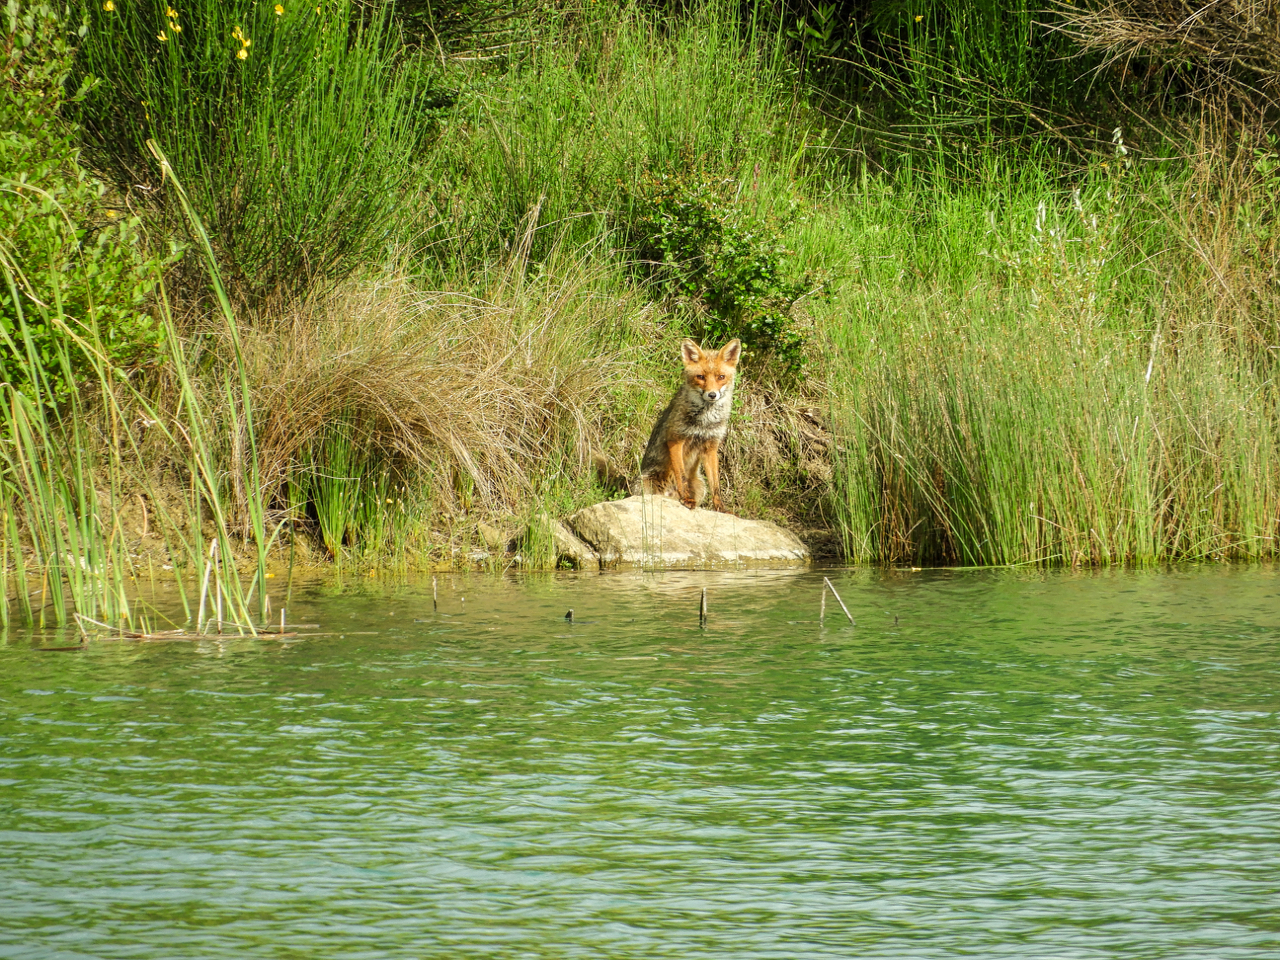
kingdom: Animalia
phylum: Chordata
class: Mammalia
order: Carnivora
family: Canidae
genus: Vulpes
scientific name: Vulpes vulpes
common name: Red fox
